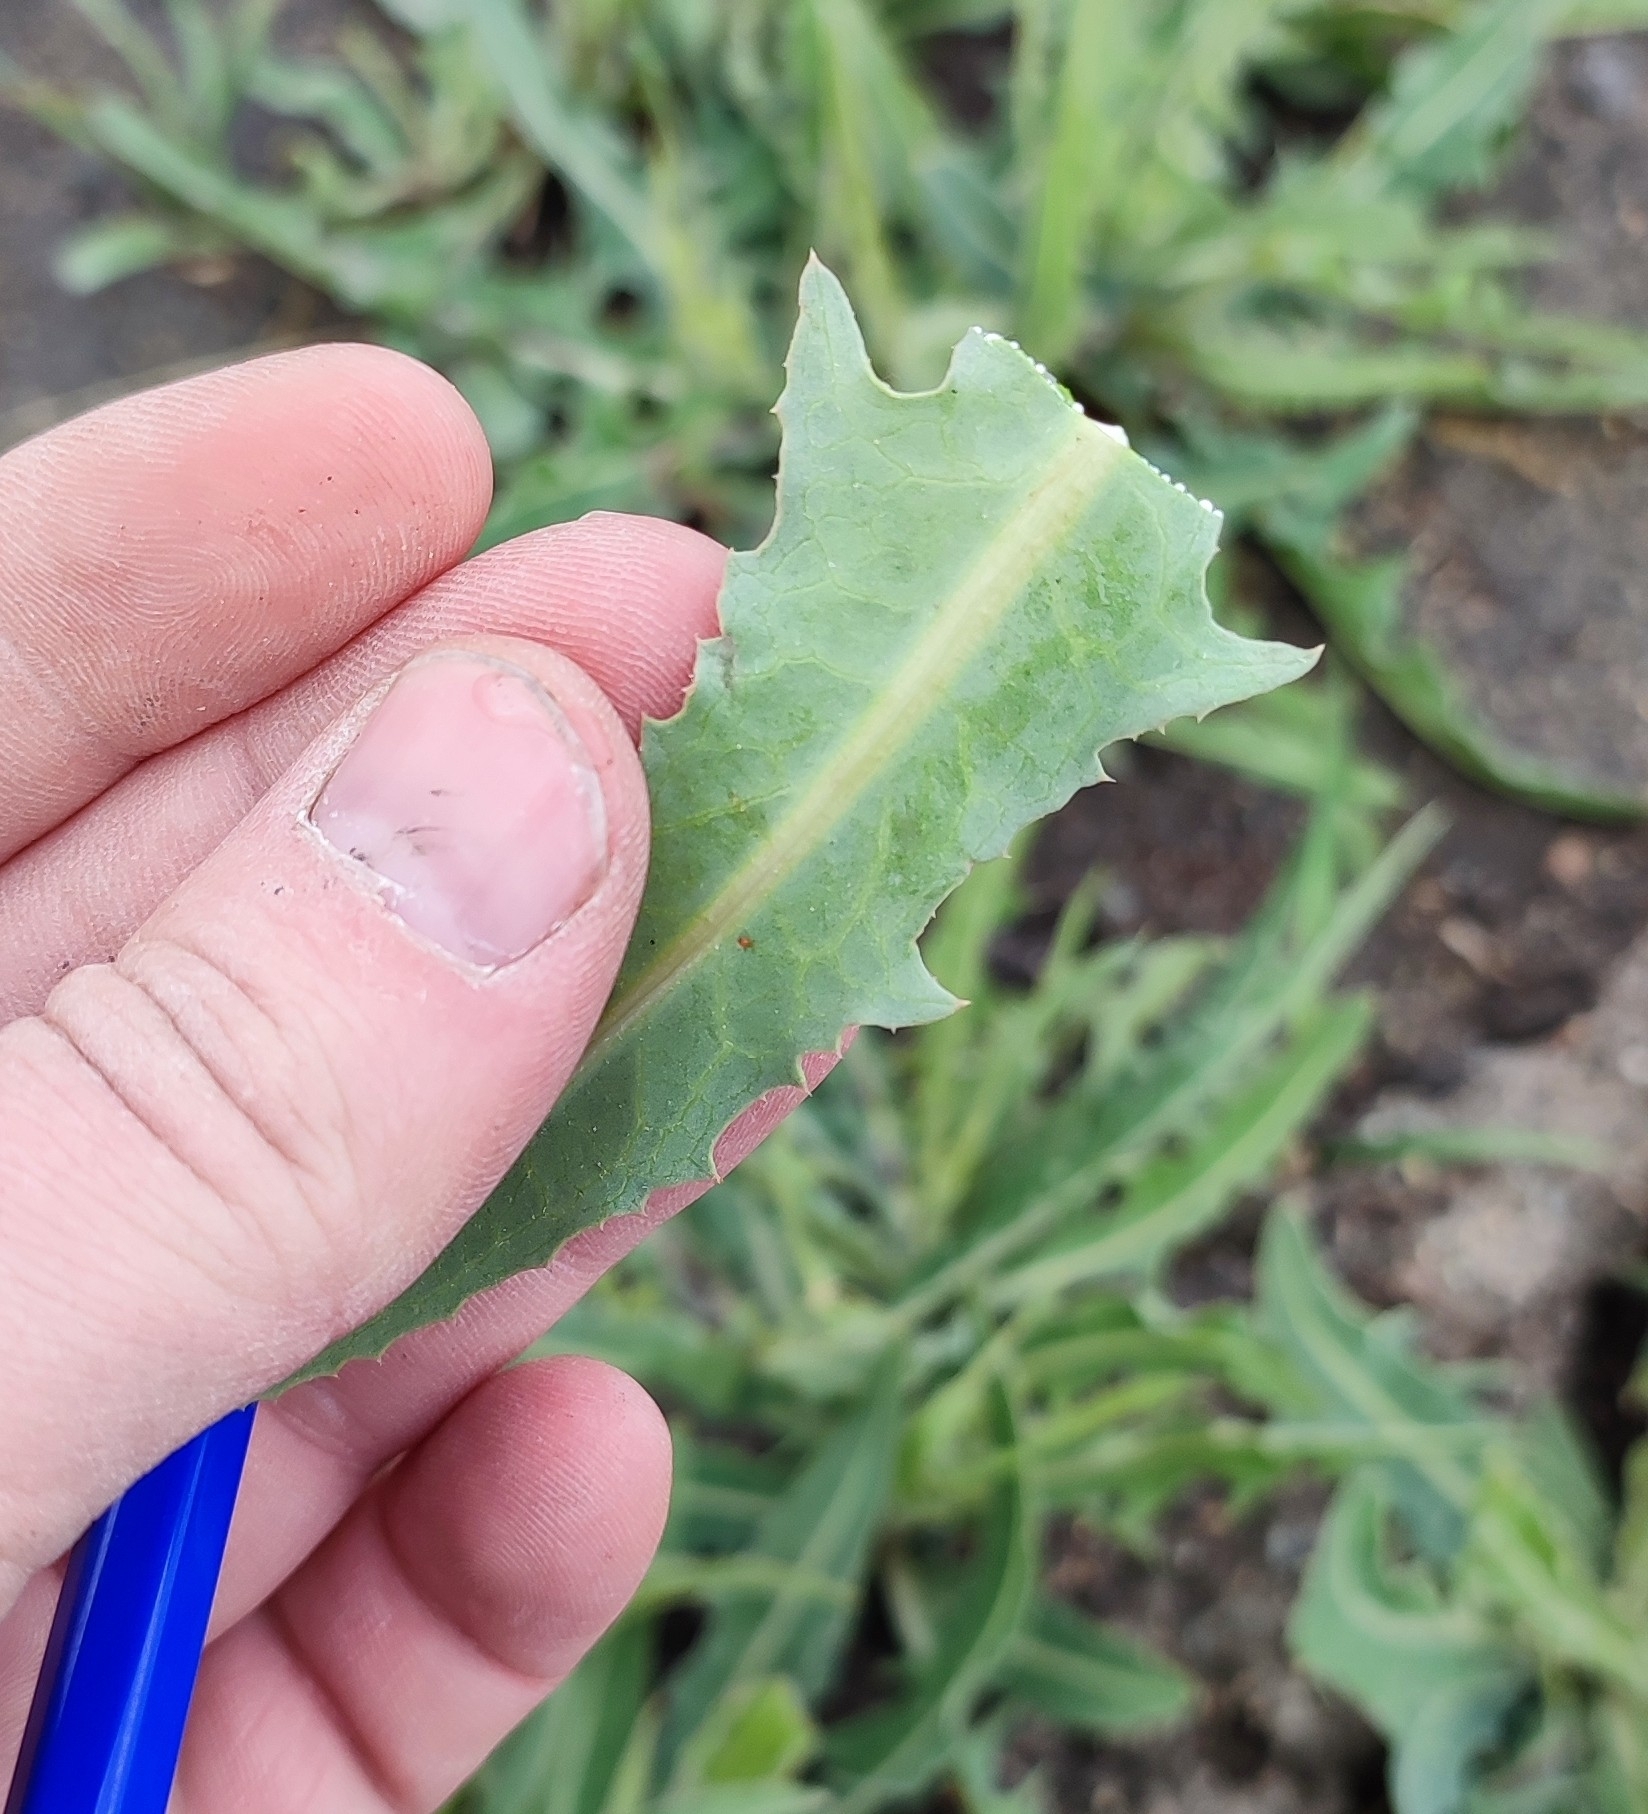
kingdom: Plantae
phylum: Tracheophyta
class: Magnoliopsida
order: Asterales
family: Asteraceae
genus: Lactuca
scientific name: Lactuca tatarica
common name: Blue lettuce
